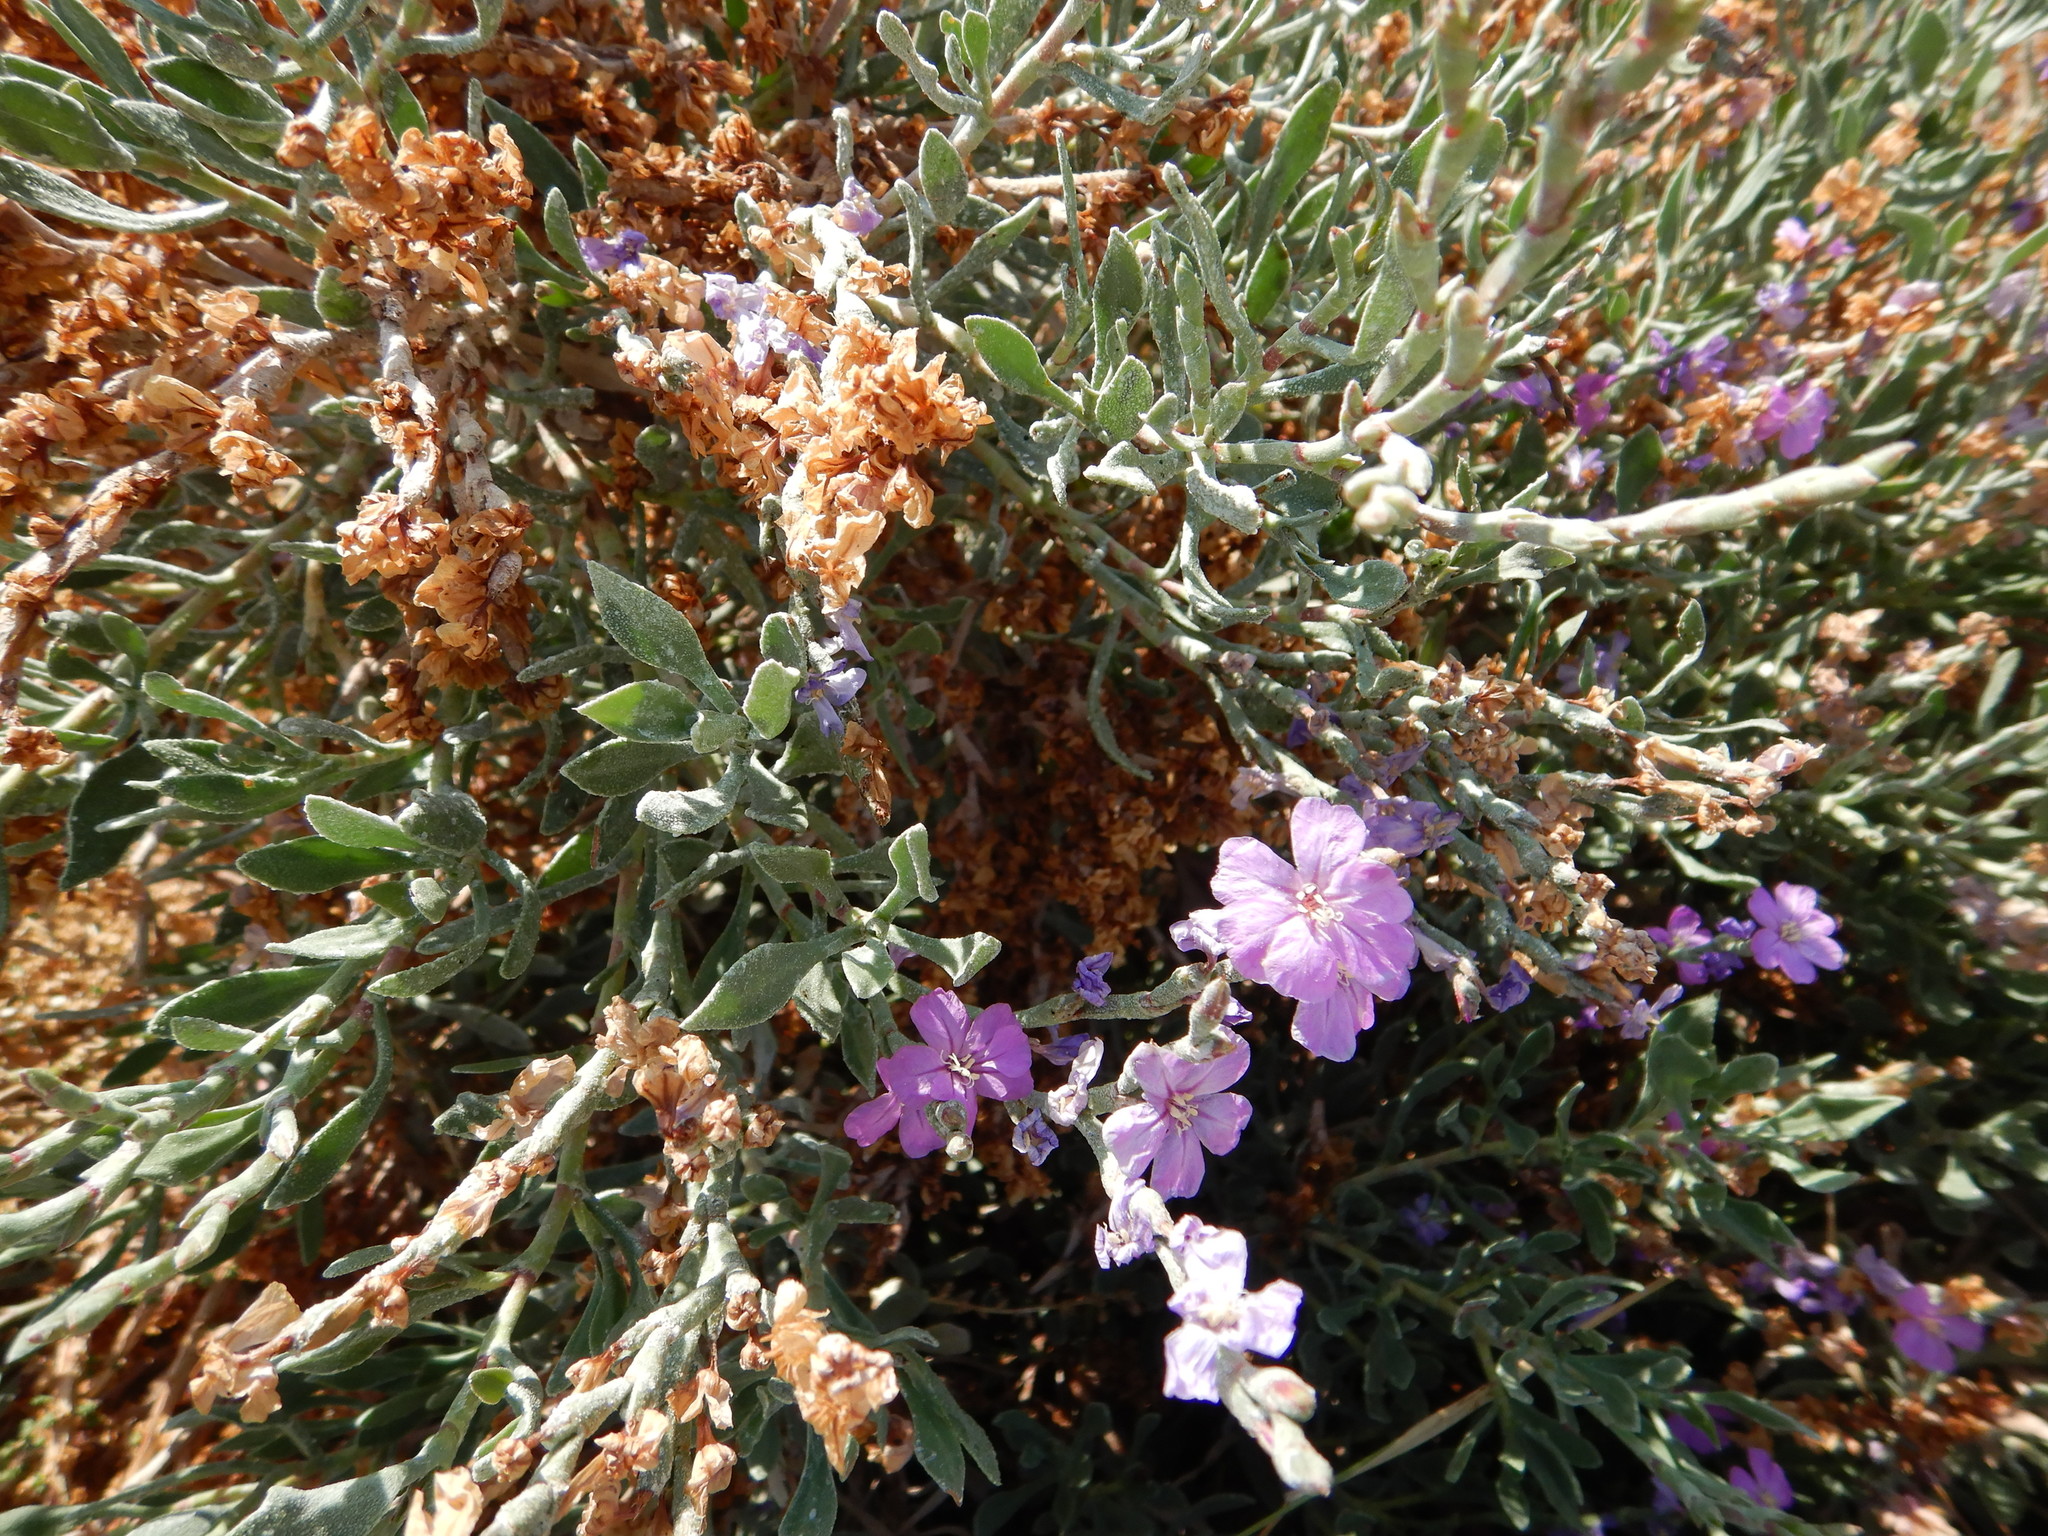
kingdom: Plantae
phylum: Tracheophyta
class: Magnoliopsida
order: Caryophyllales
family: Plumbaginaceae
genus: Limoniastrum
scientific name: Limoniastrum monopetalum
